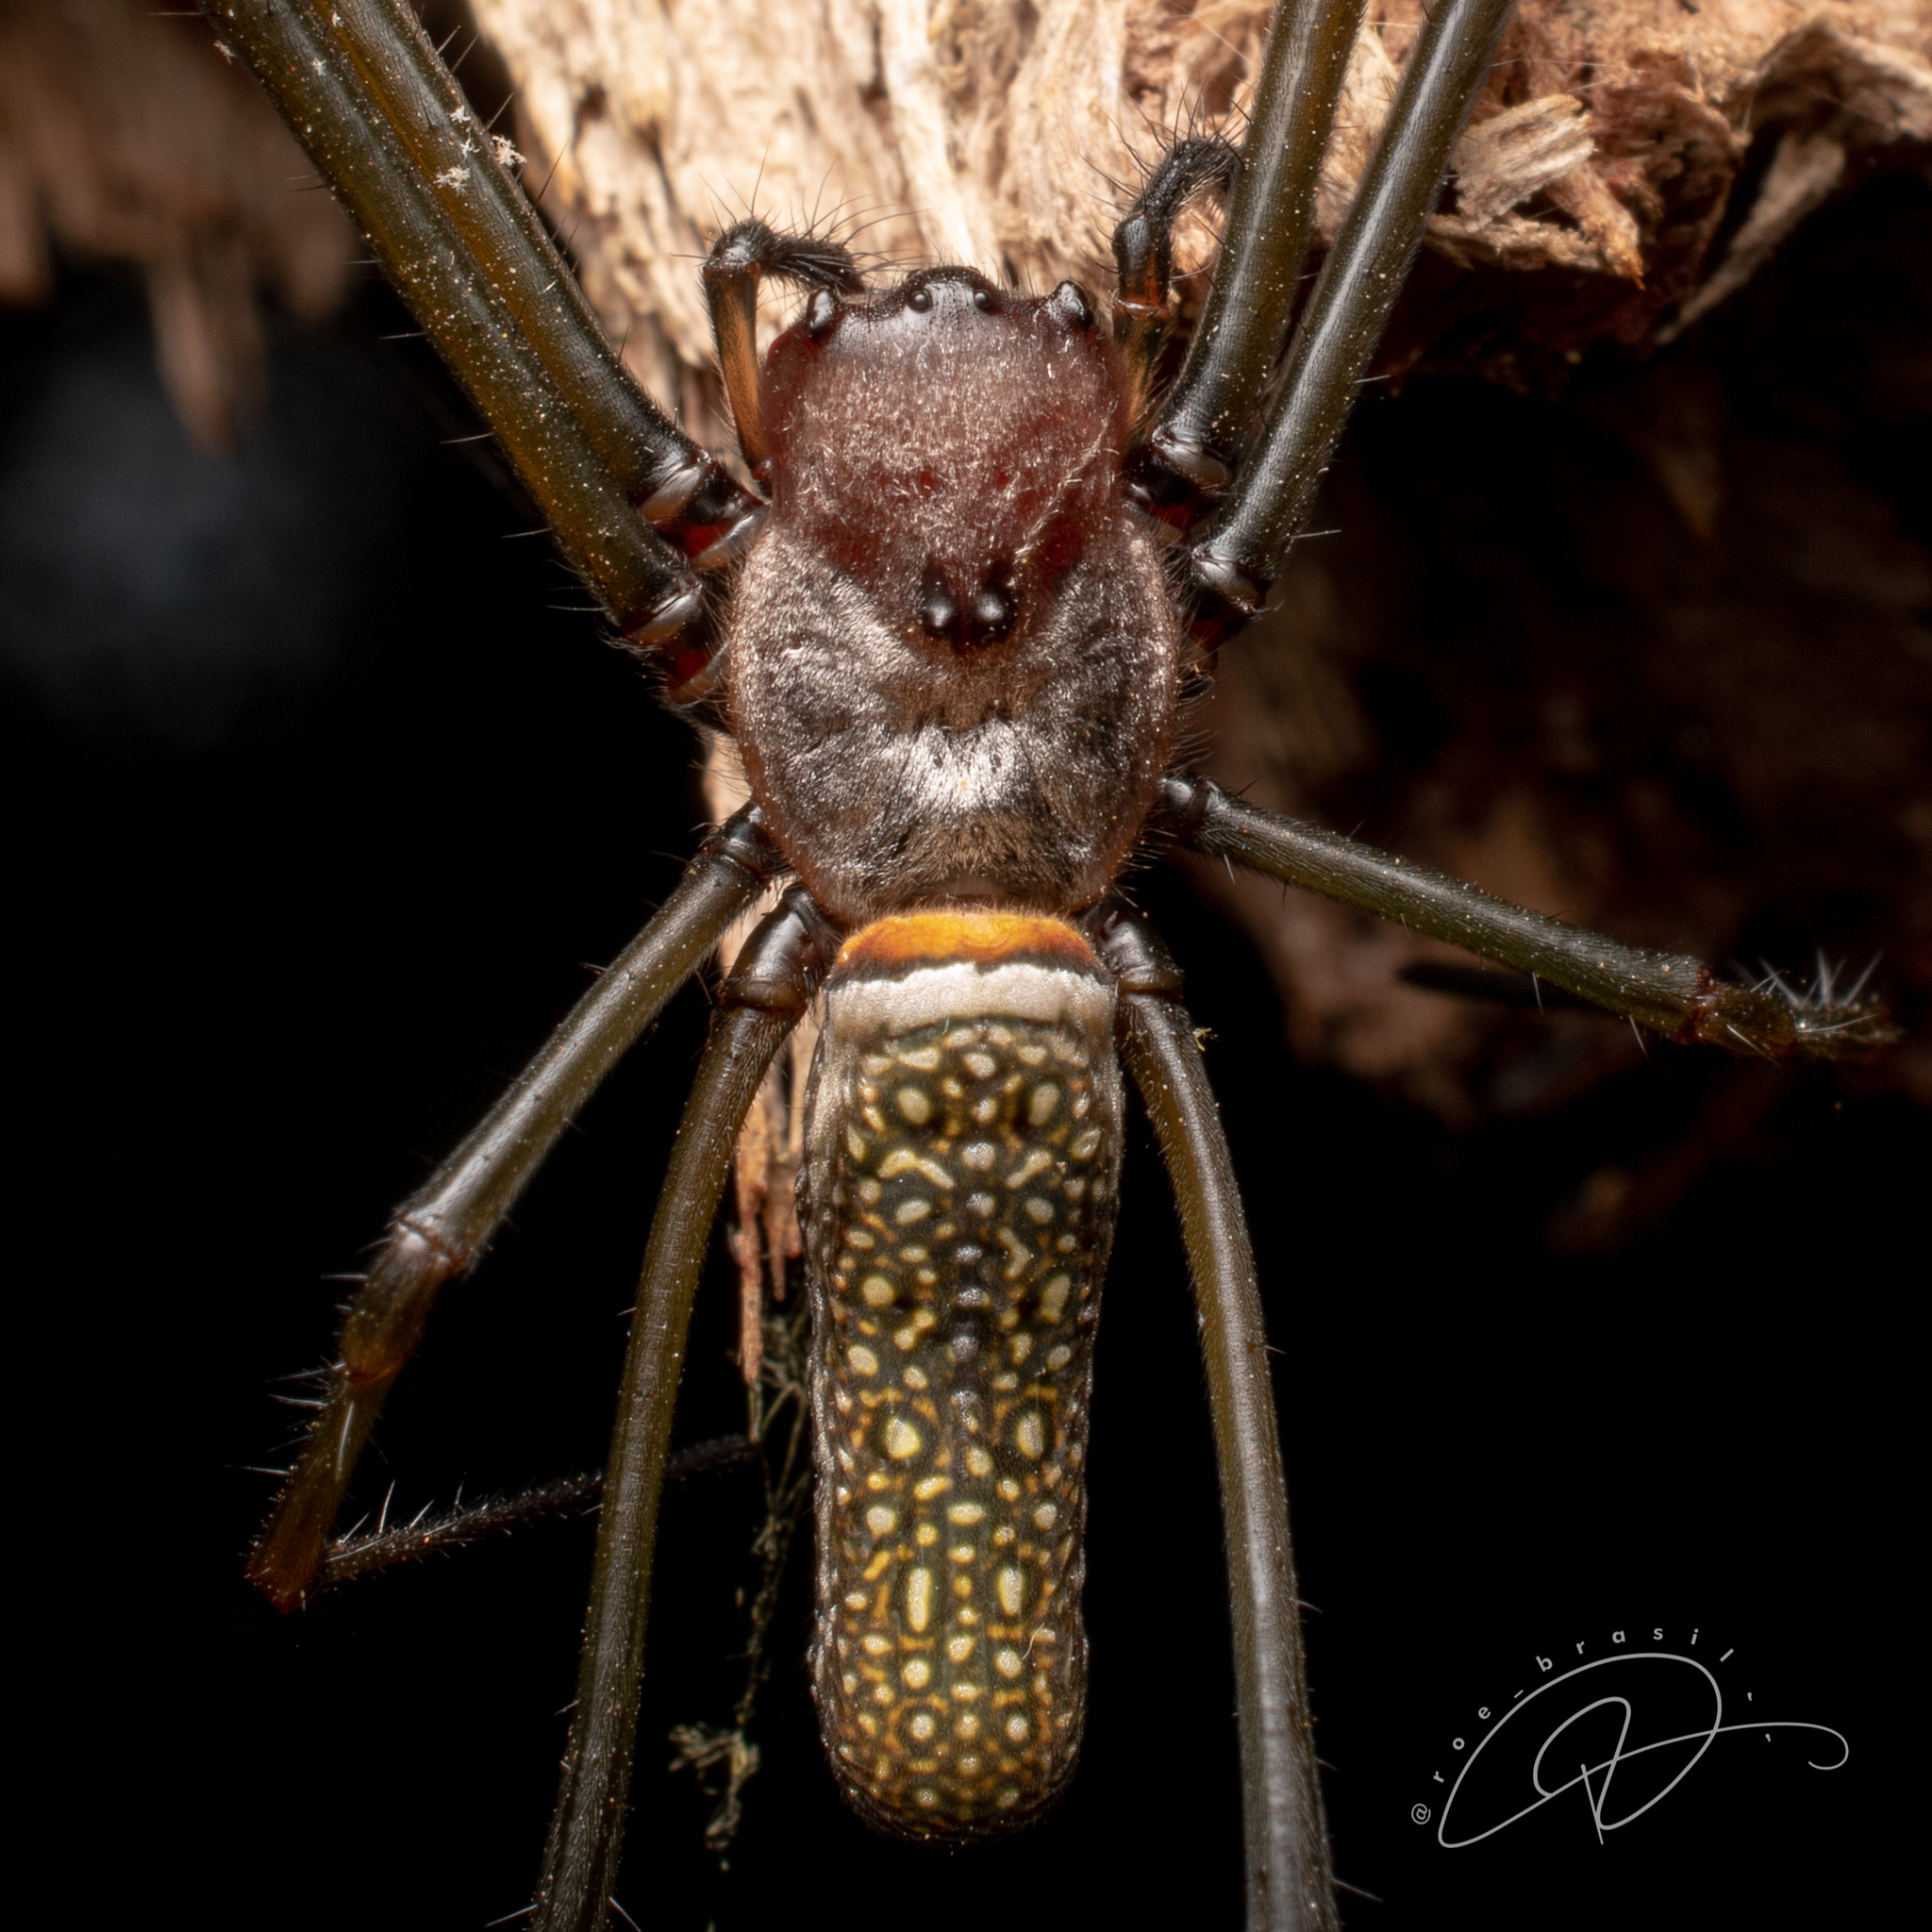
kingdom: Animalia
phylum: Arthropoda
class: Arachnida
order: Araneae
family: Araneidae
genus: Trichonephila
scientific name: Trichonephila clavipes
